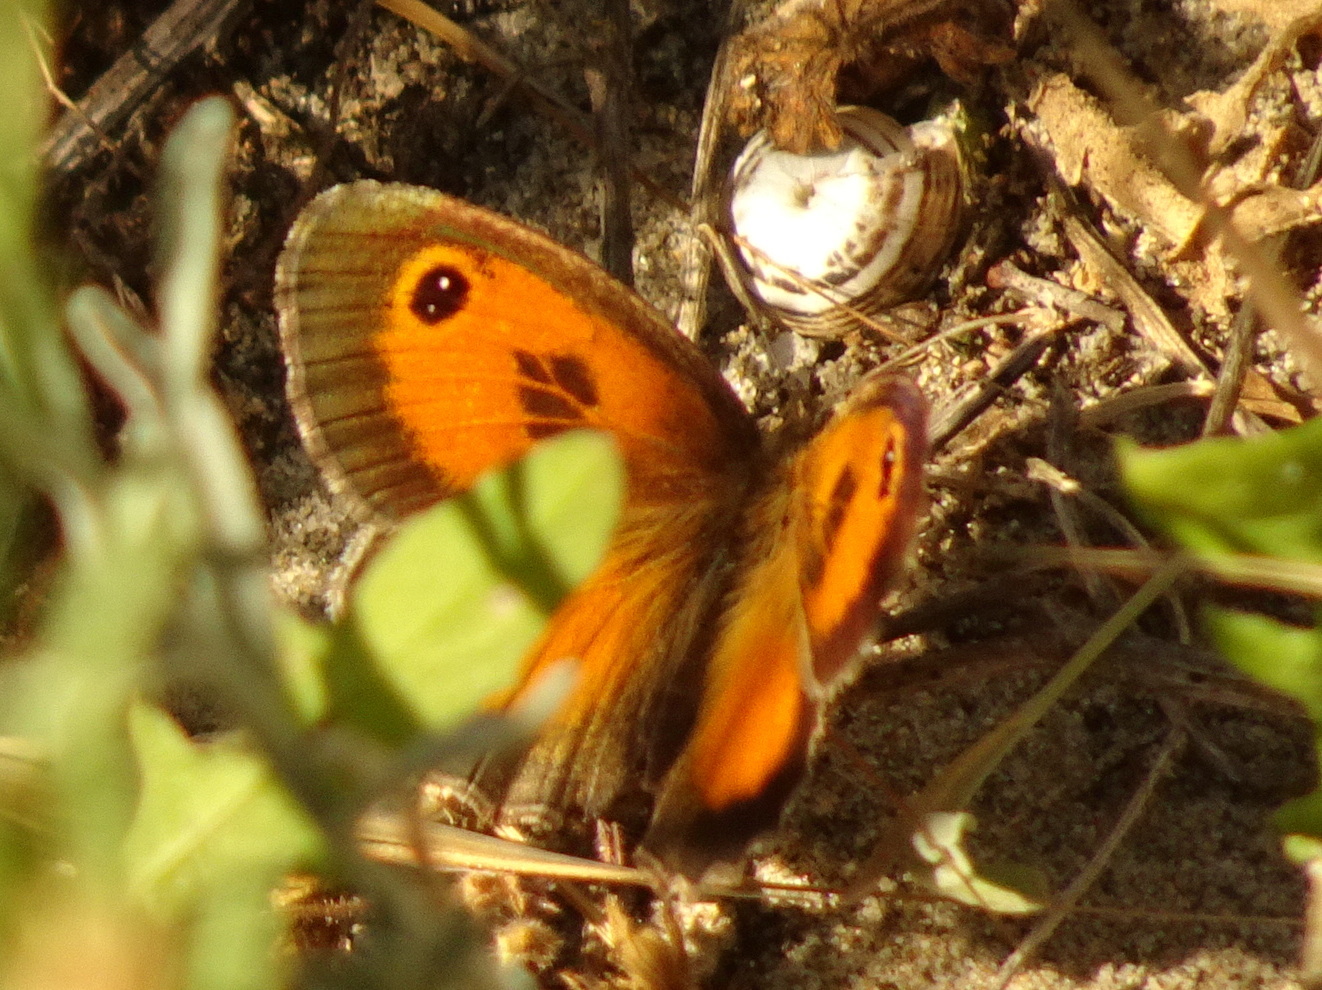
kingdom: Animalia
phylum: Arthropoda
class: Insecta
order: Lepidoptera
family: Nymphalidae
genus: Pyronia
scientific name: Pyronia cecilia
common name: Southern gatekeeper
